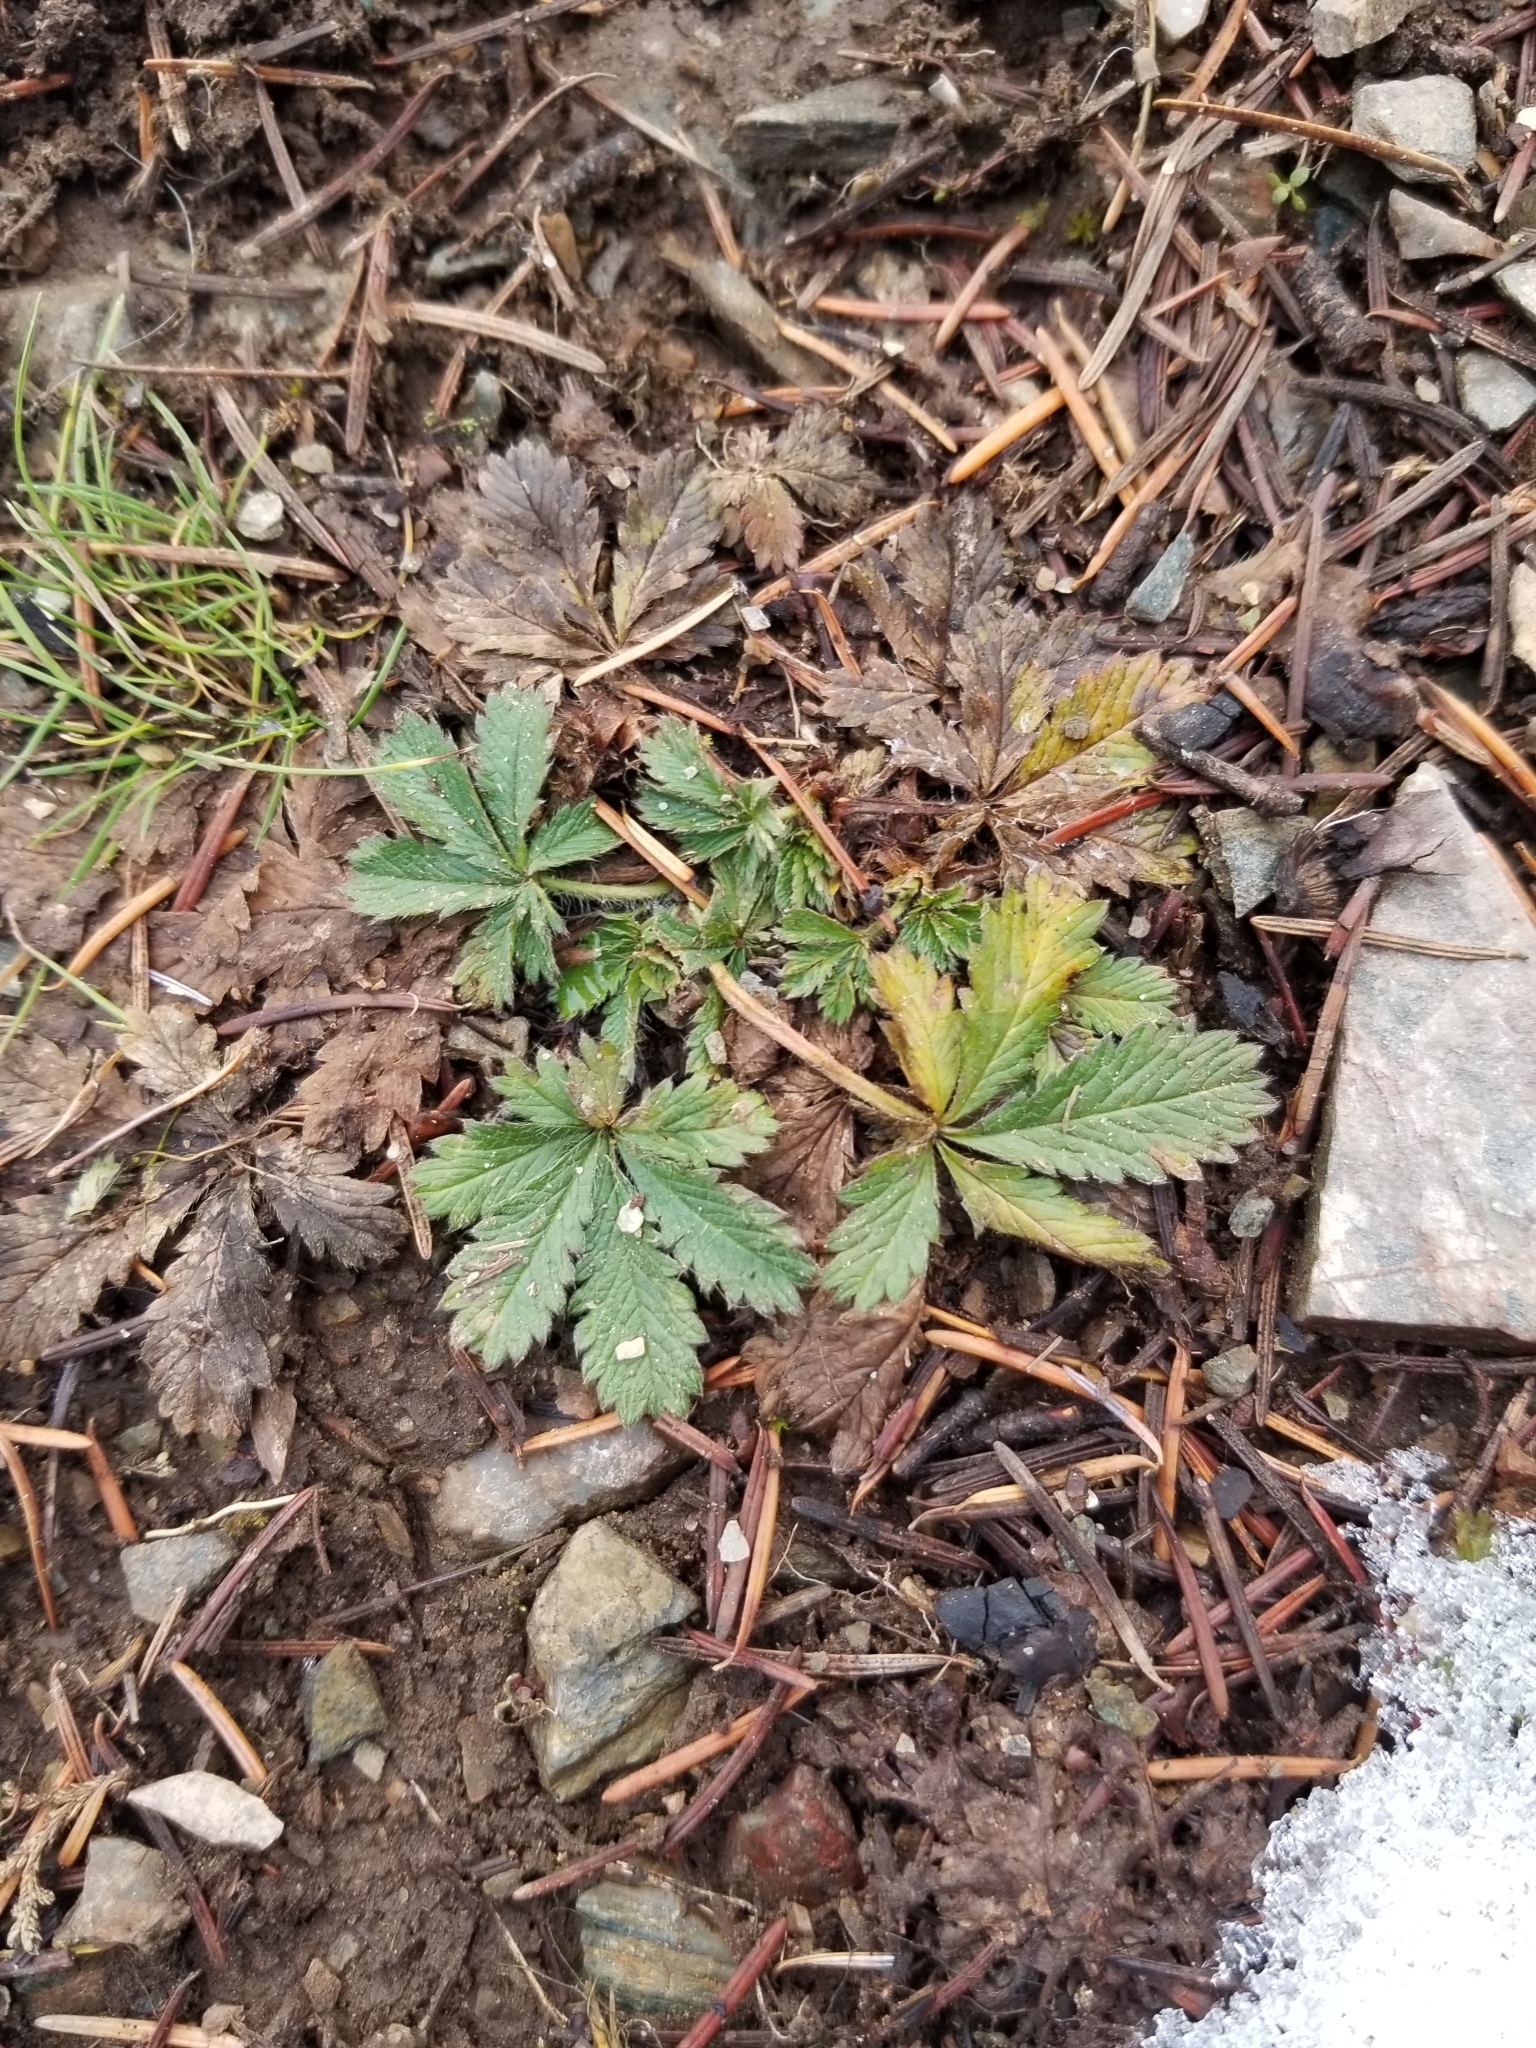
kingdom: Plantae
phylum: Tracheophyta
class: Magnoliopsida
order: Rosales
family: Rosaceae
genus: Potentilla
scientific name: Potentilla recta
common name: Sulphur cinquefoil
